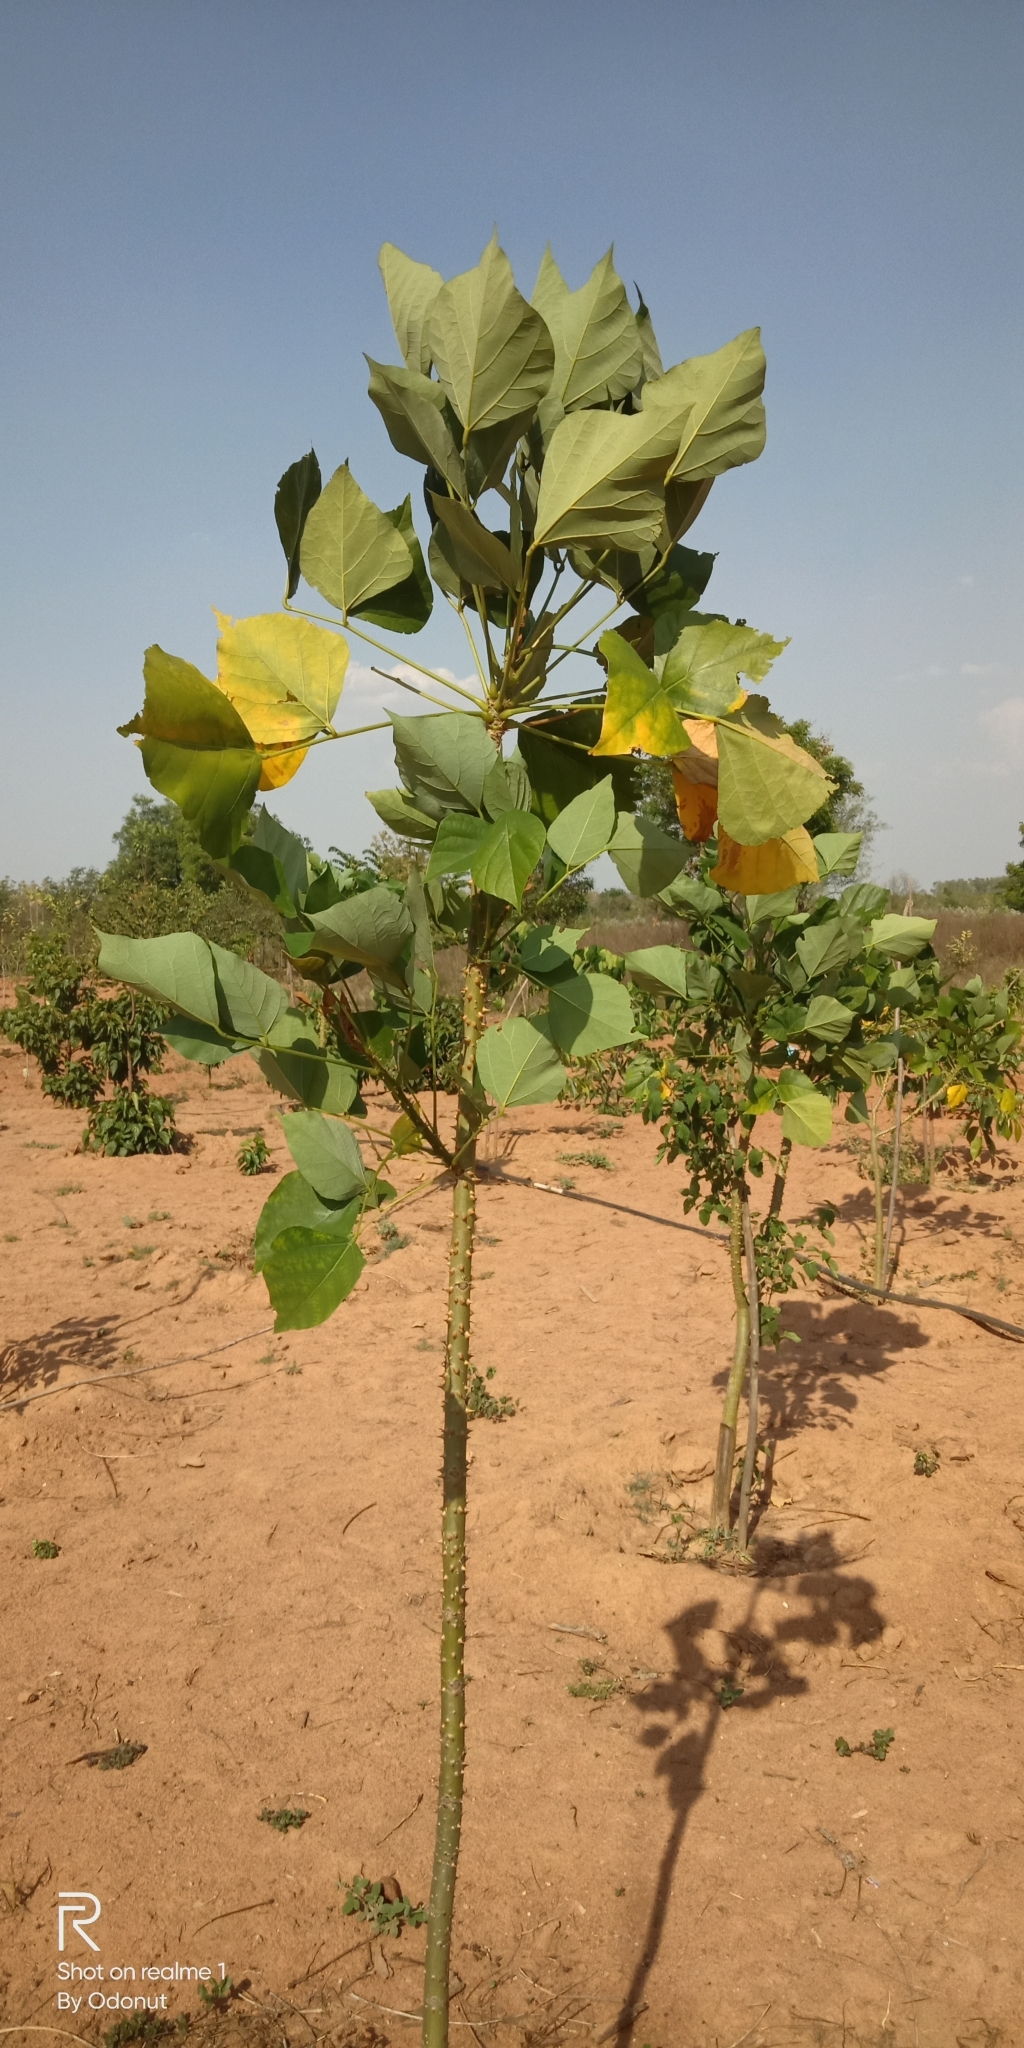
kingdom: Animalia
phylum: Arthropoda
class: Insecta
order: Hymenoptera
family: Eulophidae
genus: Quadrastichus
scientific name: Quadrastichus erythrinae
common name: Erythrina gall wasp
